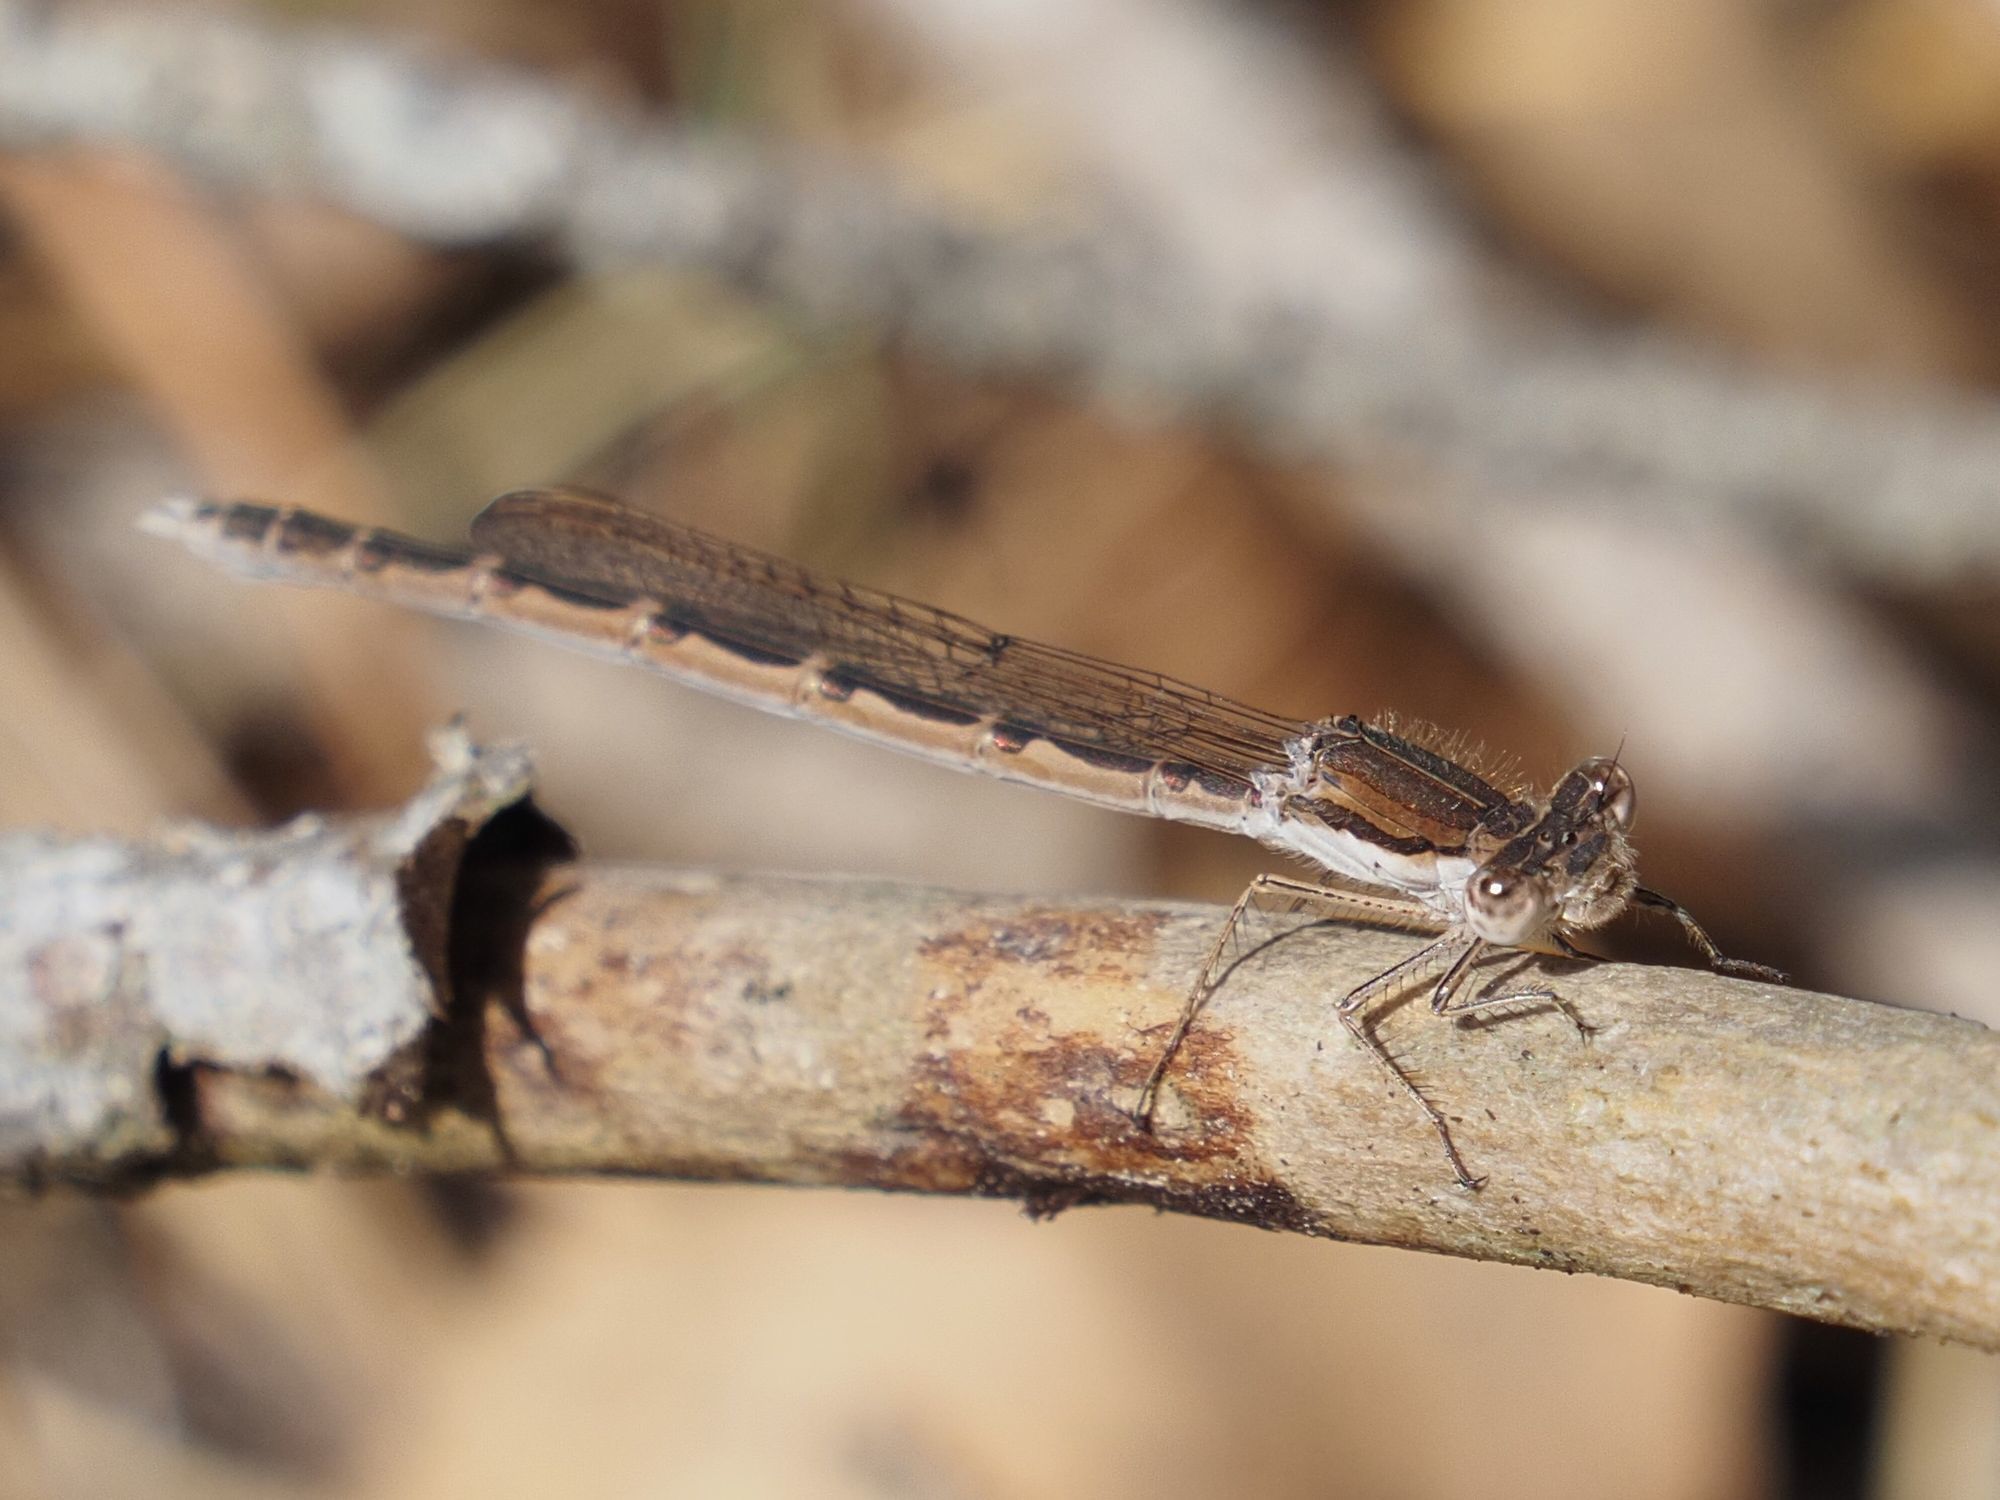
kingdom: Animalia
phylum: Arthropoda
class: Insecta
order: Odonata
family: Lestidae
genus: Sympecma
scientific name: Sympecma fusca
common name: Common winter damsel
